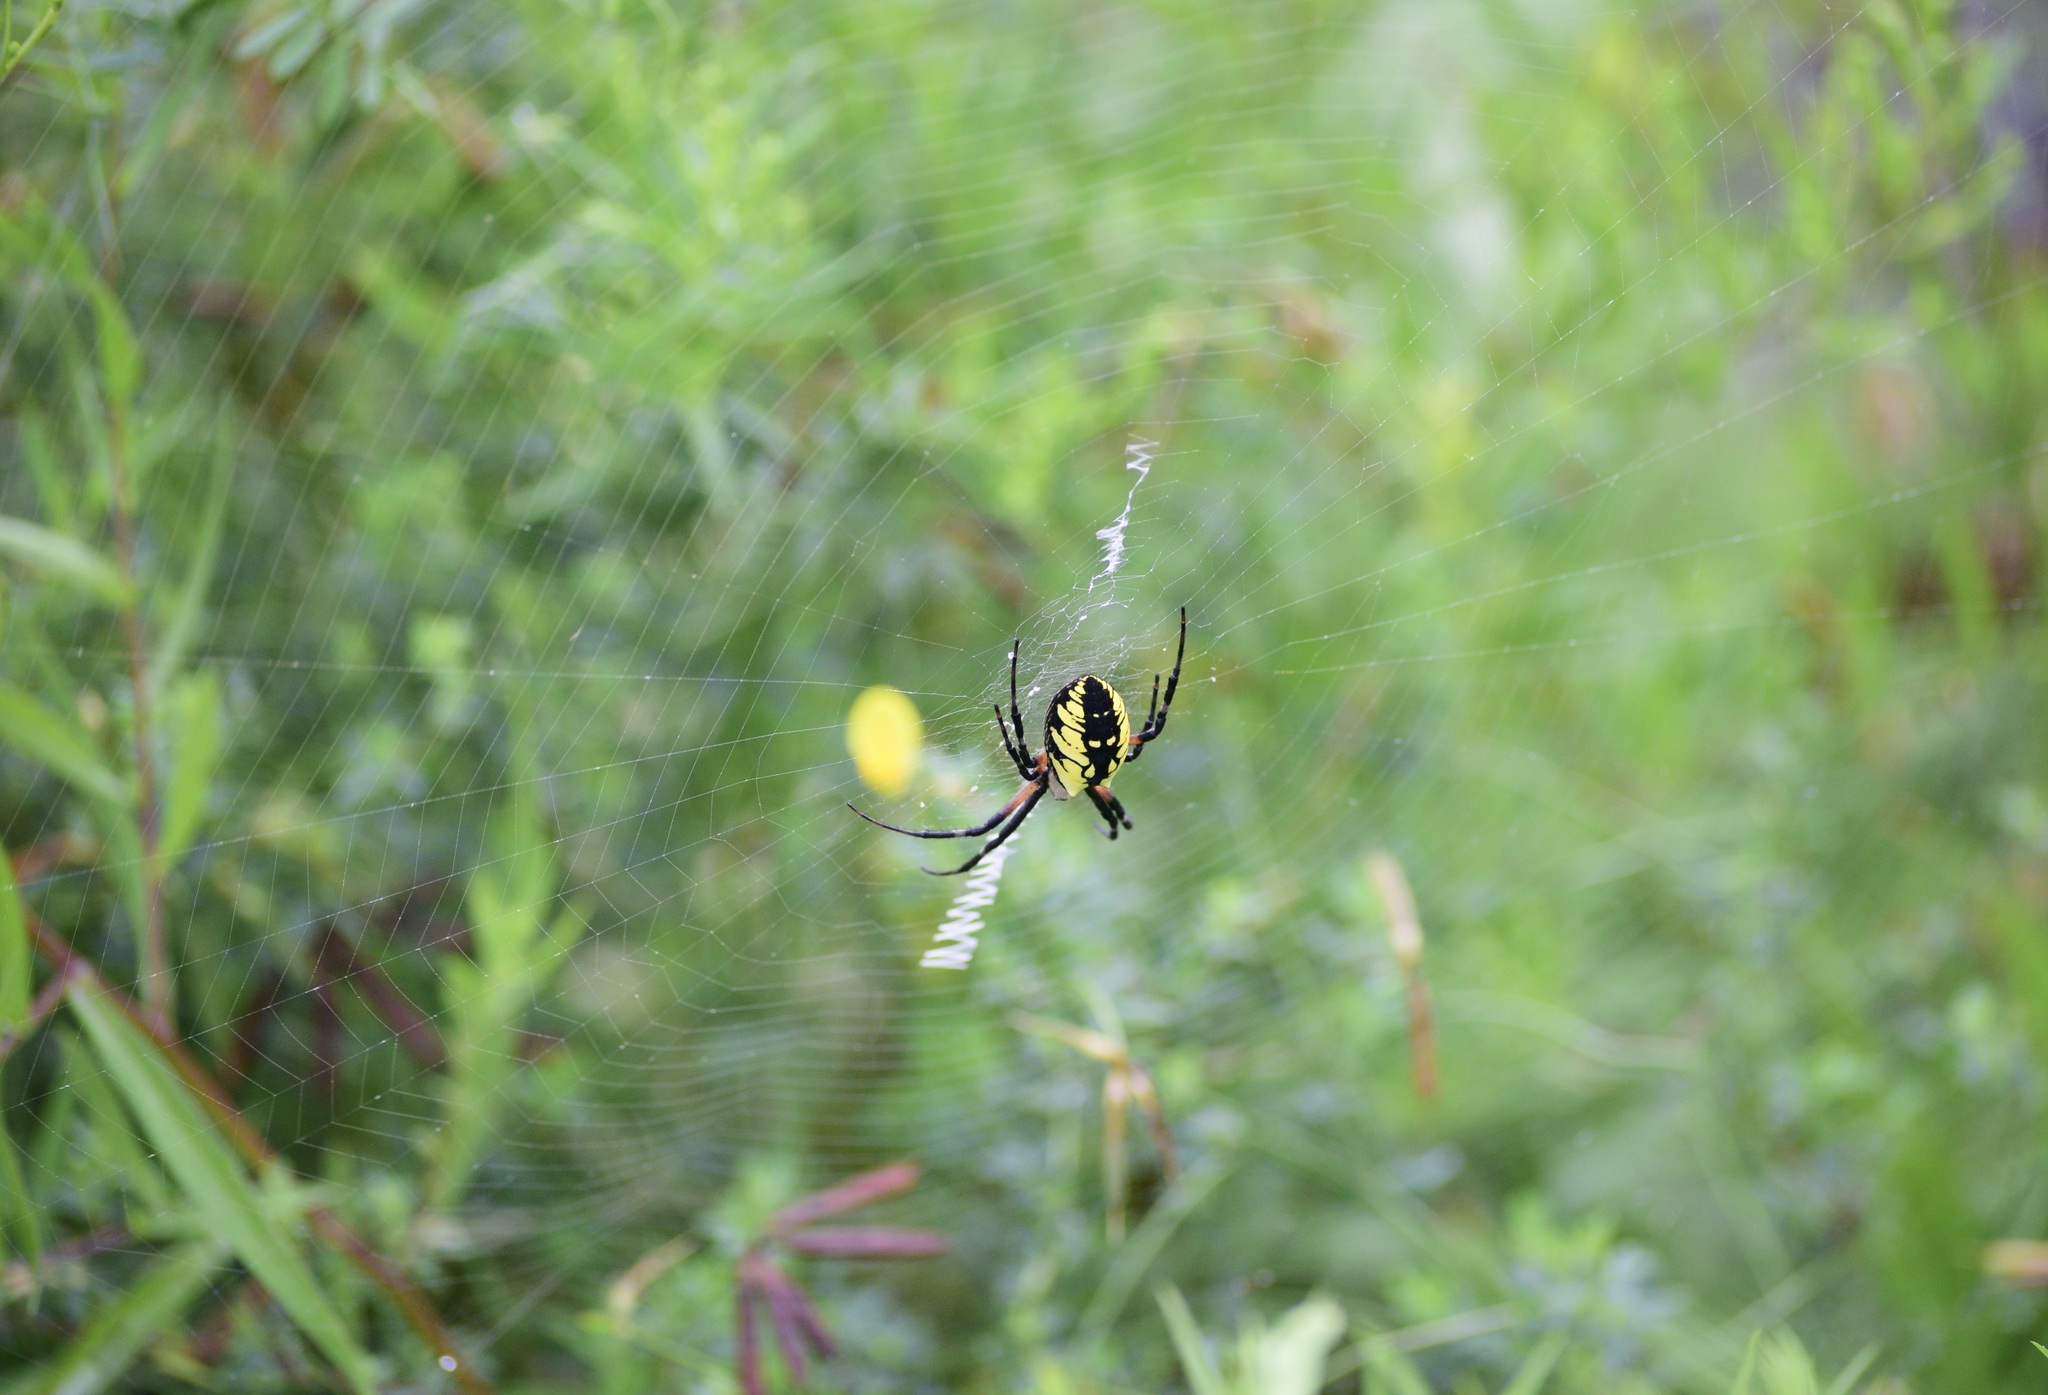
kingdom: Animalia
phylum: Arthropoda
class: Arachnida
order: Araneae
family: Araneidae
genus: Argiope
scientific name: Argiope aurantia
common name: Orb weavers
